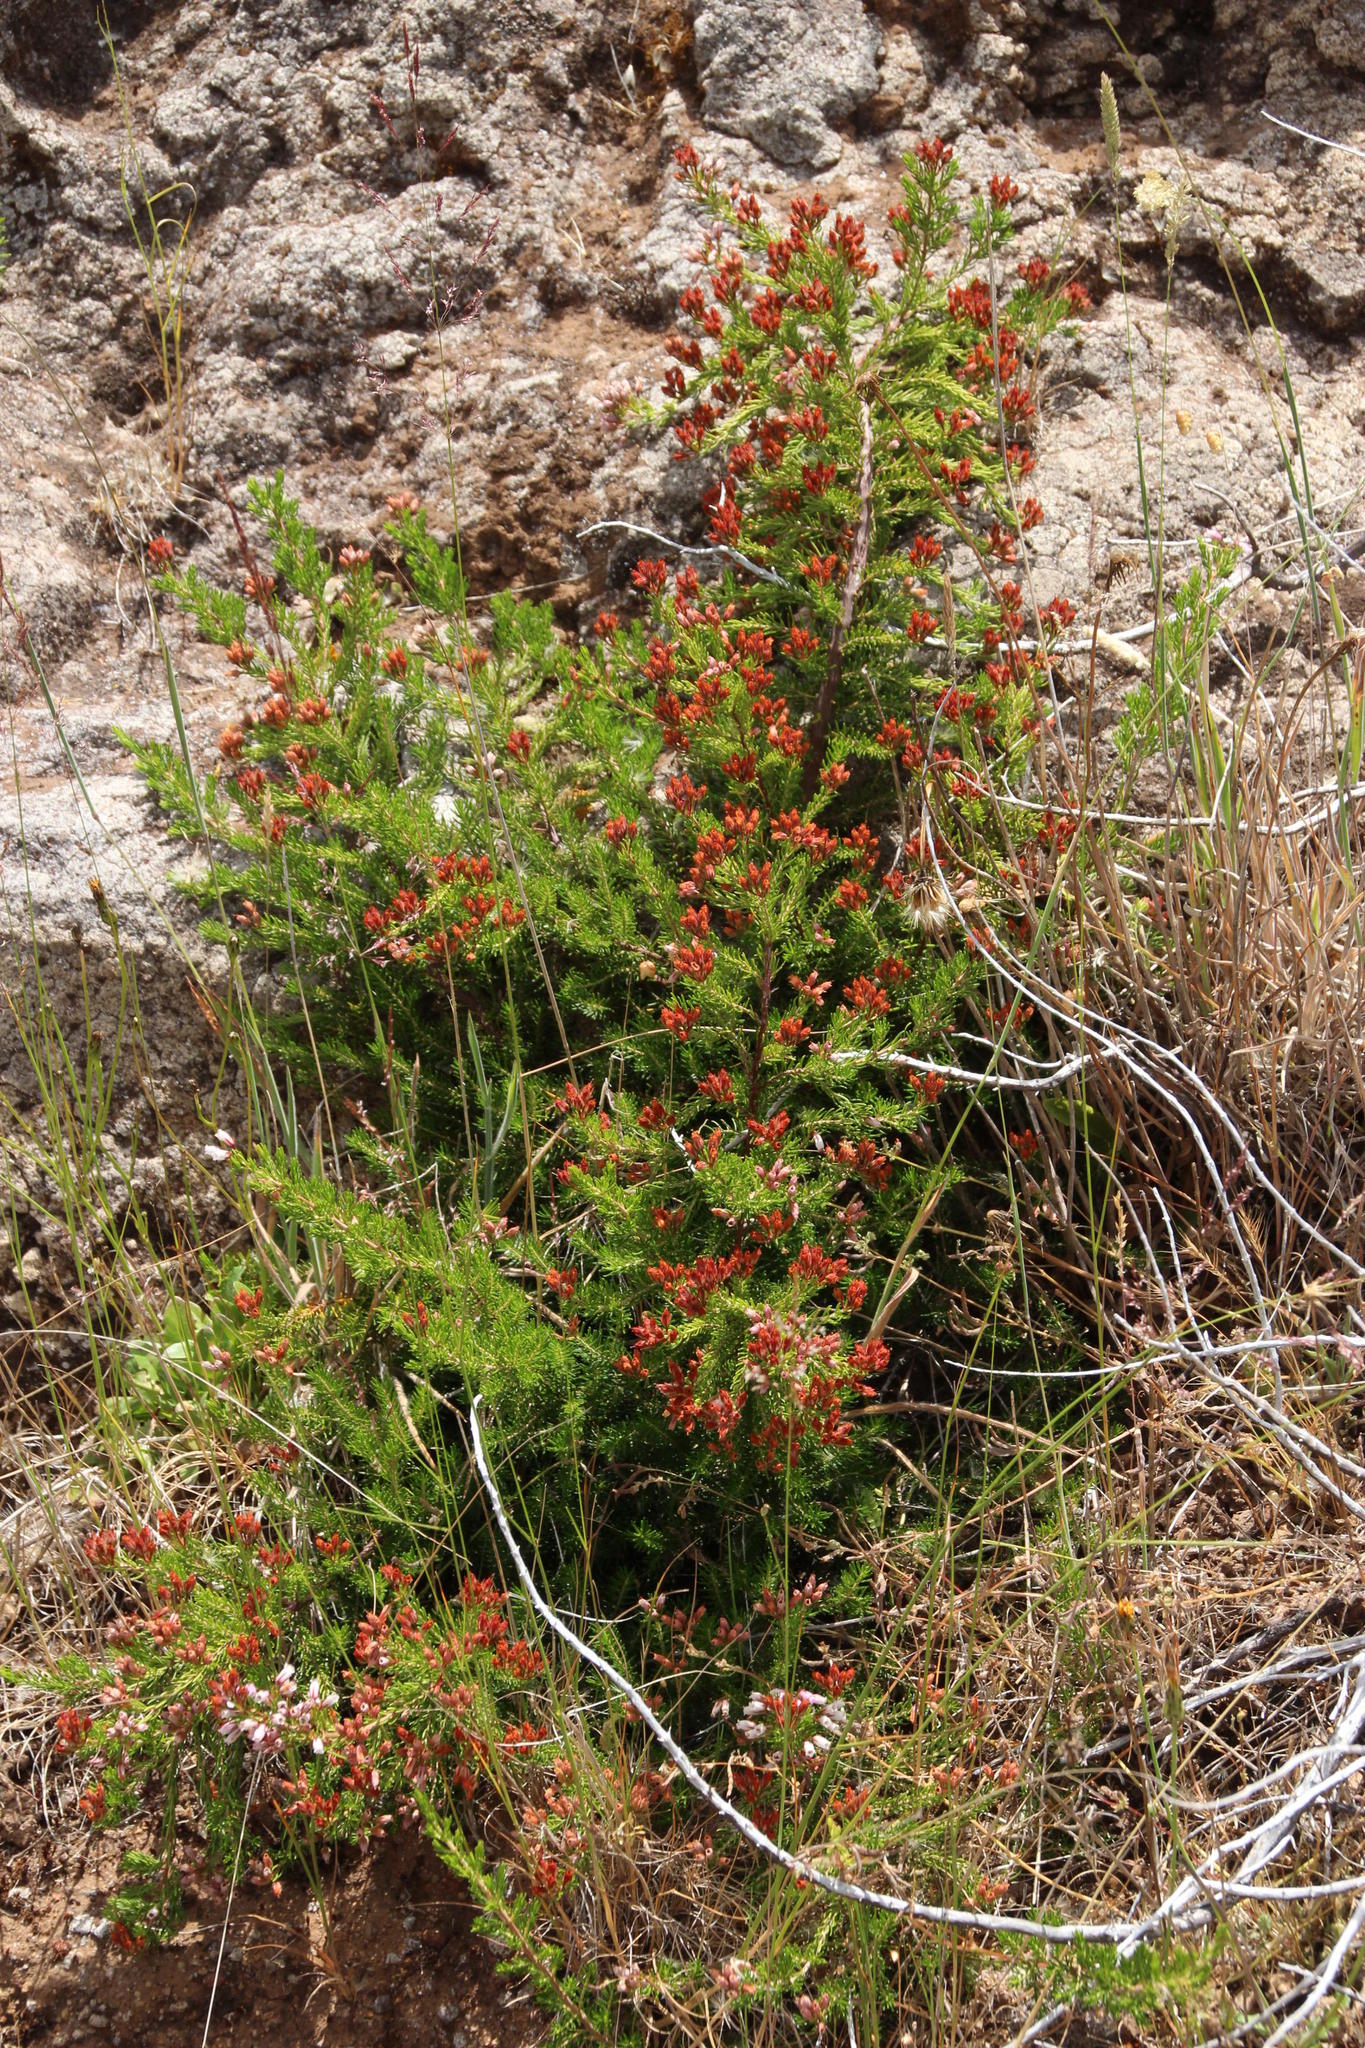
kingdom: Plantae
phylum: Tracheophyta
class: Magnoliopsida
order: Ericales
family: Ericaceae
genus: Erica
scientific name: Erica maderensis
